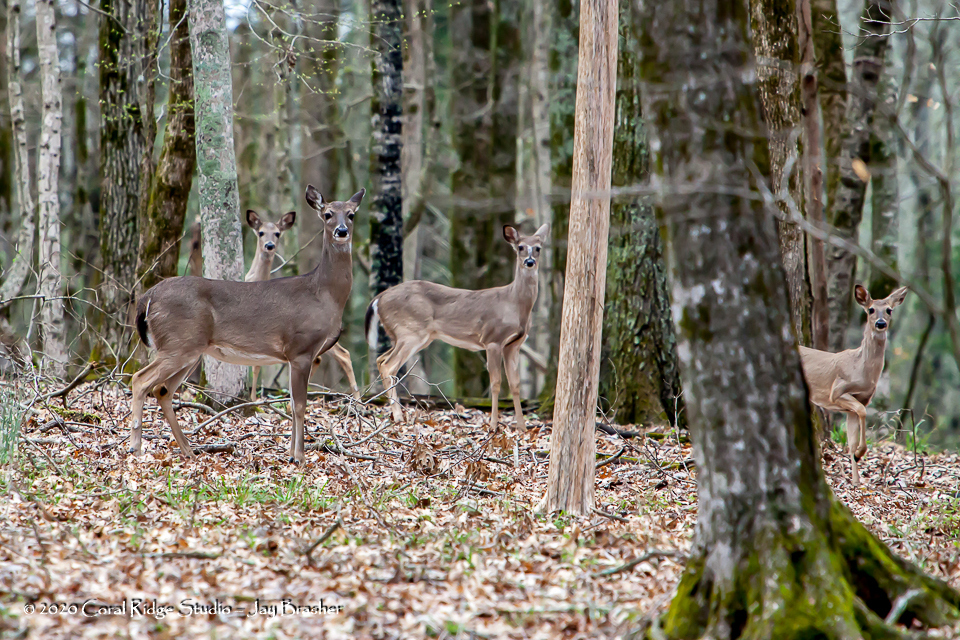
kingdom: Animalia
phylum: Chordata
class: Mammalia
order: Artiodactyla
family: Cervidae
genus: Odocoileus
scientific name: Odocoileus virginianus
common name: White-tailed deer
